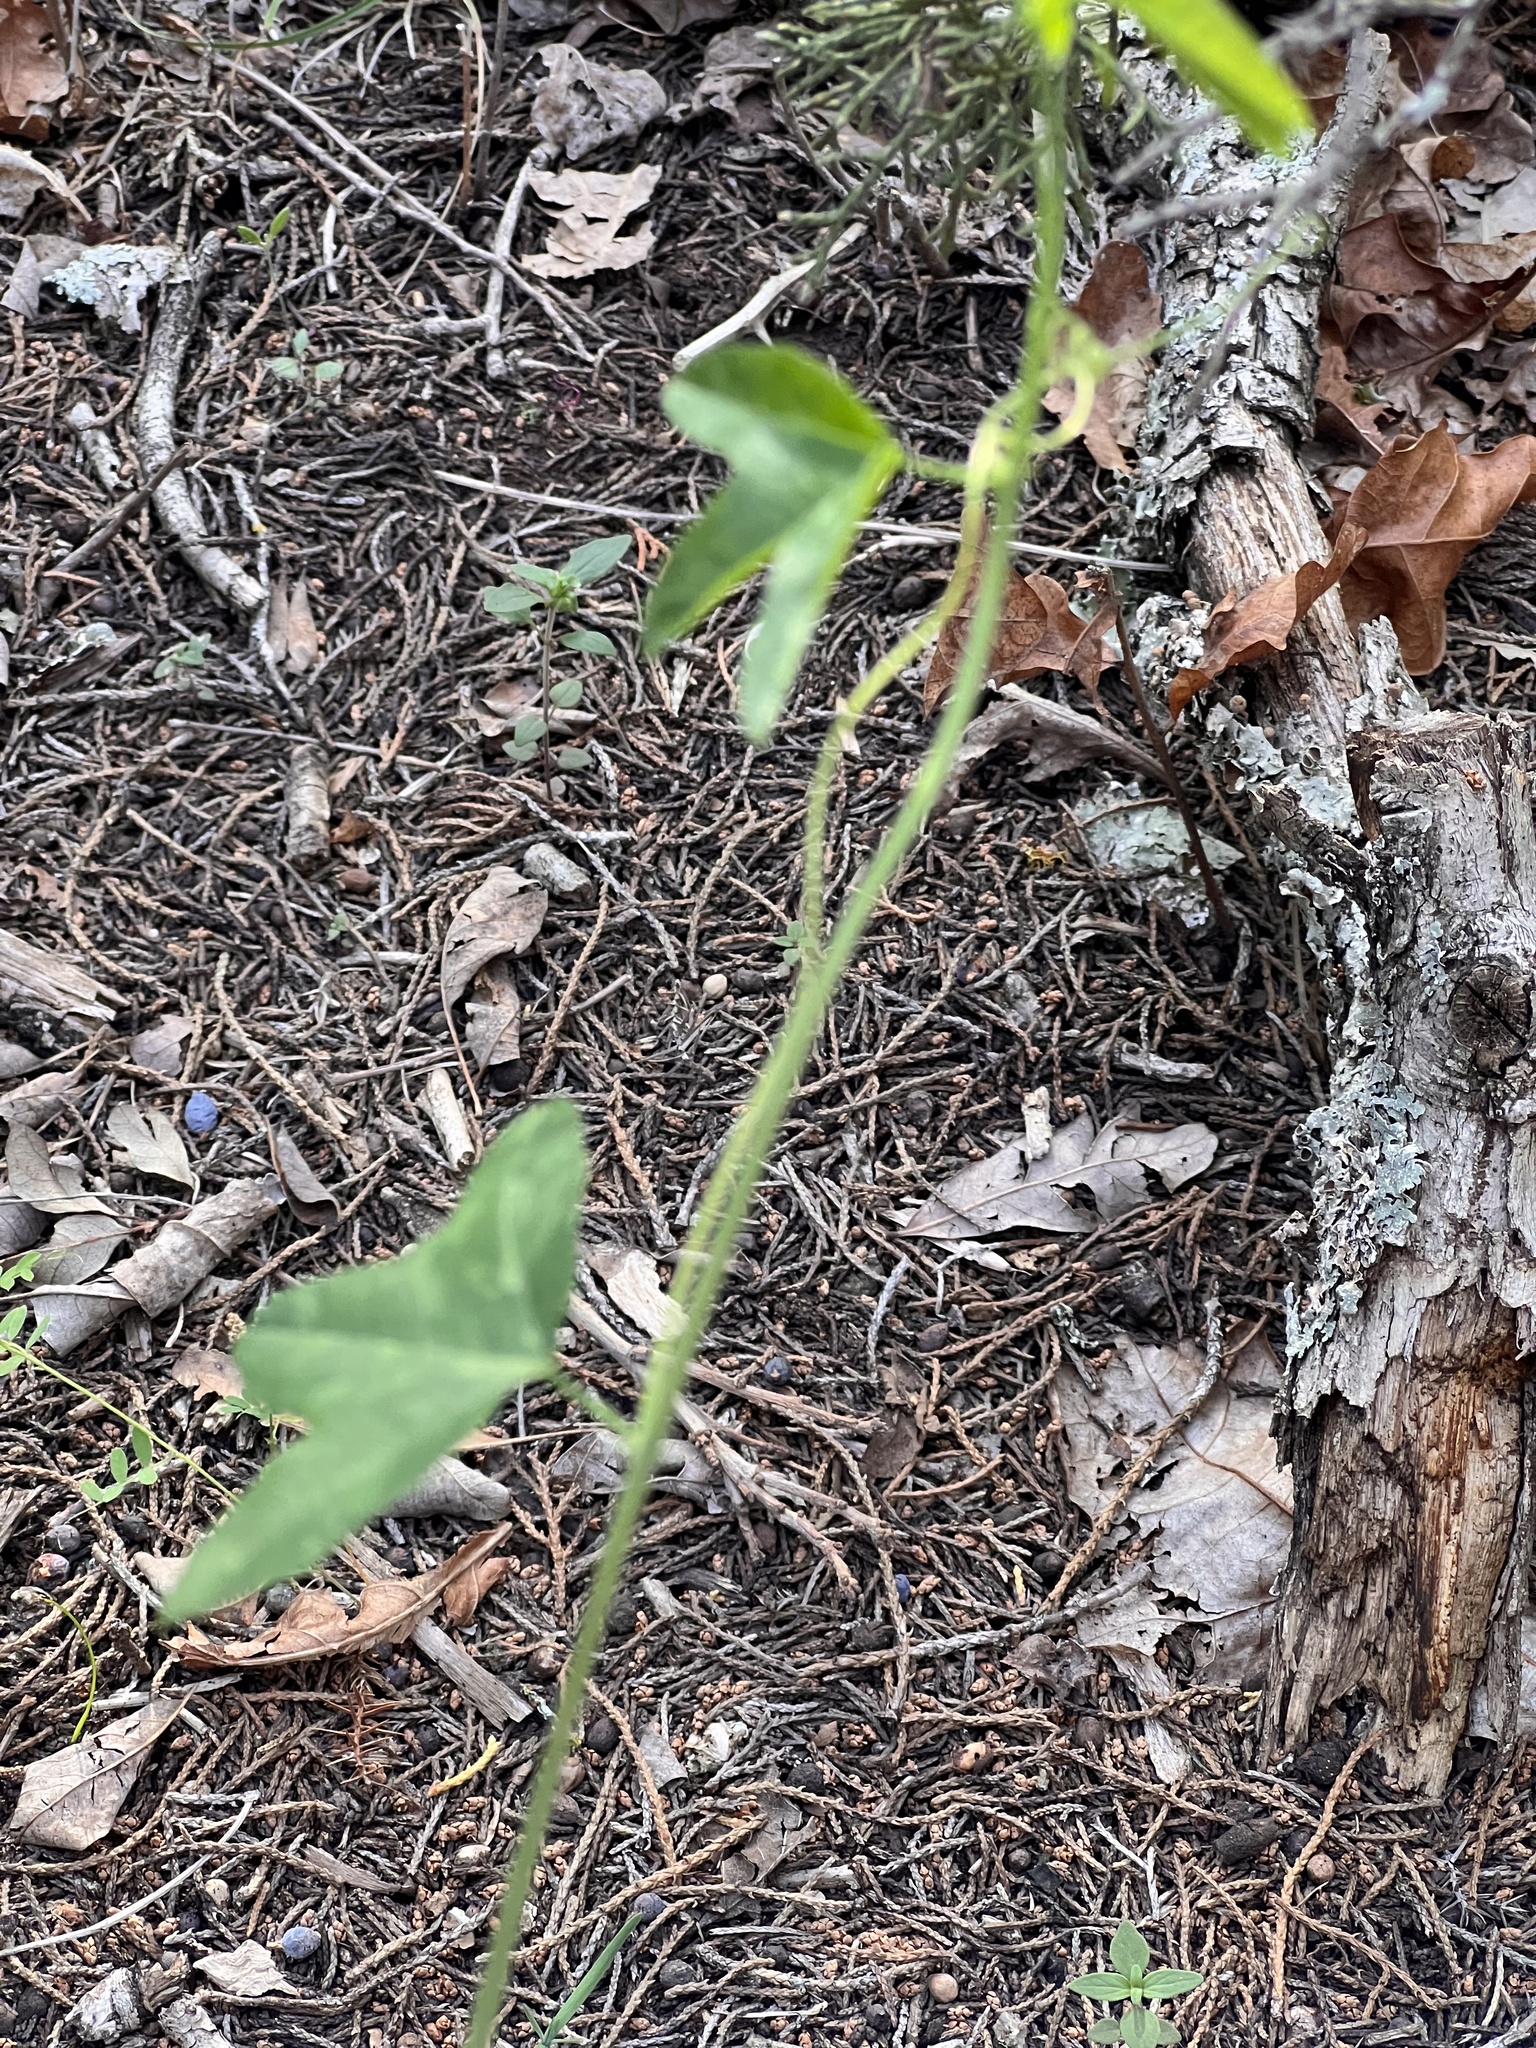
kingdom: Plantae
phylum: Tracheophyta
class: Magnoliopsida
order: Malpighiales
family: Passifloraceae
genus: Passiflora
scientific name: Passiflora lutea
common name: Yellow passionflower
